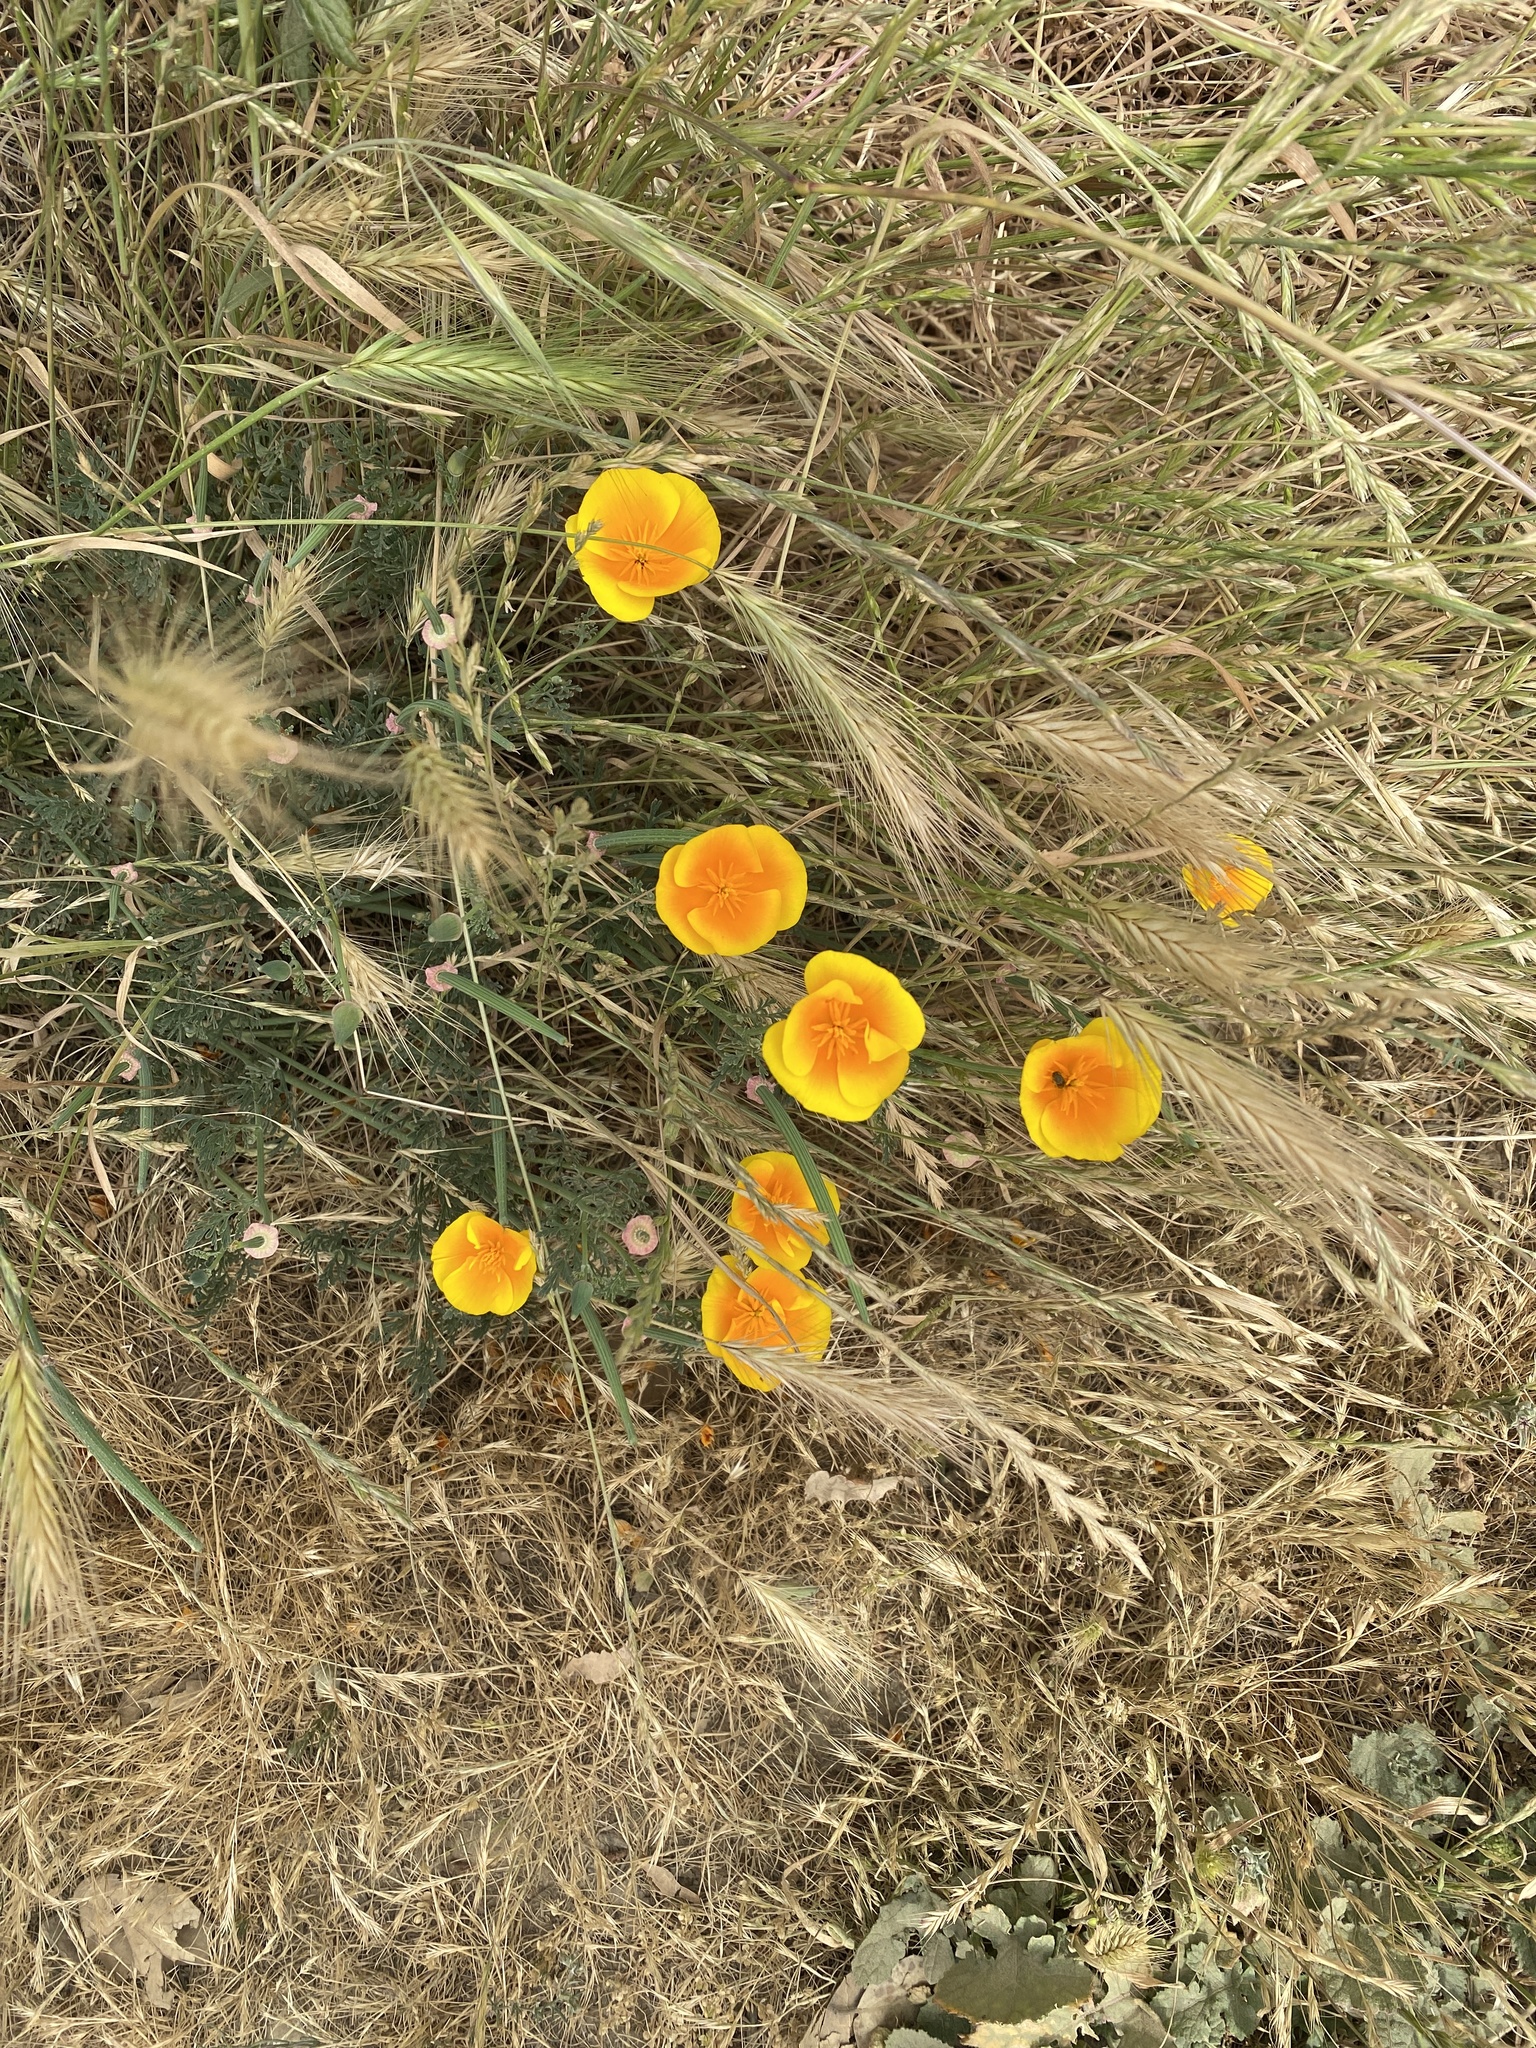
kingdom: Plantae
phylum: Tracheophyta
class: Magnoliopsida
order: Ranunculales
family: Papaveraceae
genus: Eschscholzia
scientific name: Eschscholzia californica
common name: California poppy
